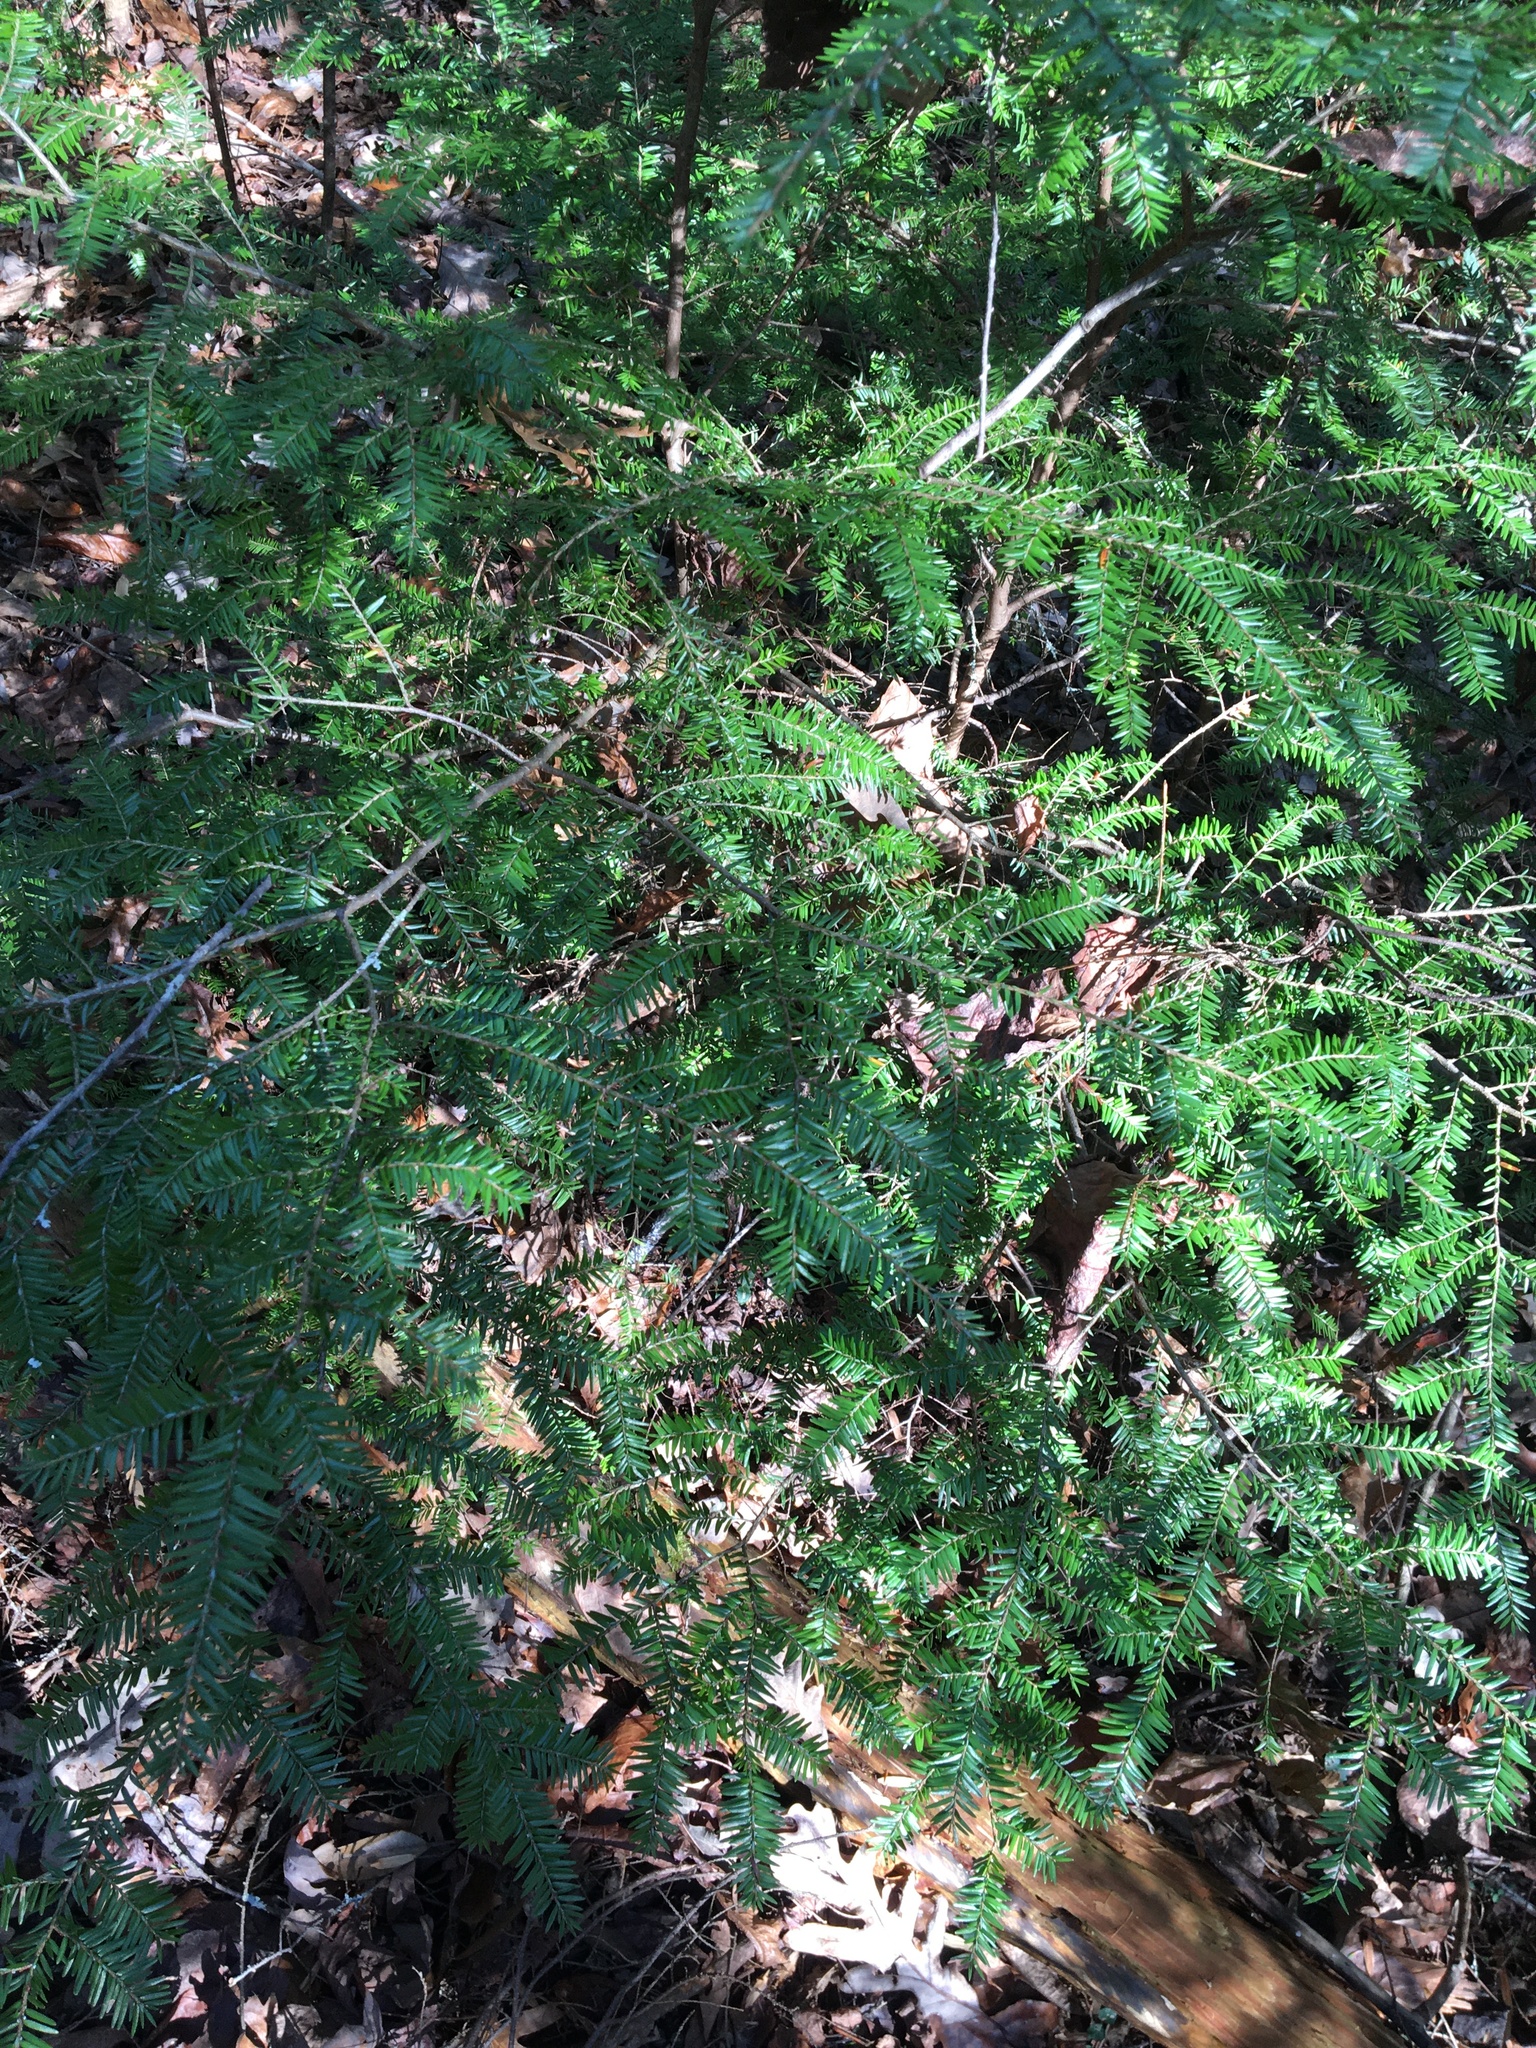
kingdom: Plantae
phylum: Tracheophyta
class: Pinopsida
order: Pinales
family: Pinaceae
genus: Tsuga
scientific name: Tsuga canadensis
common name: Eastern hemlock
